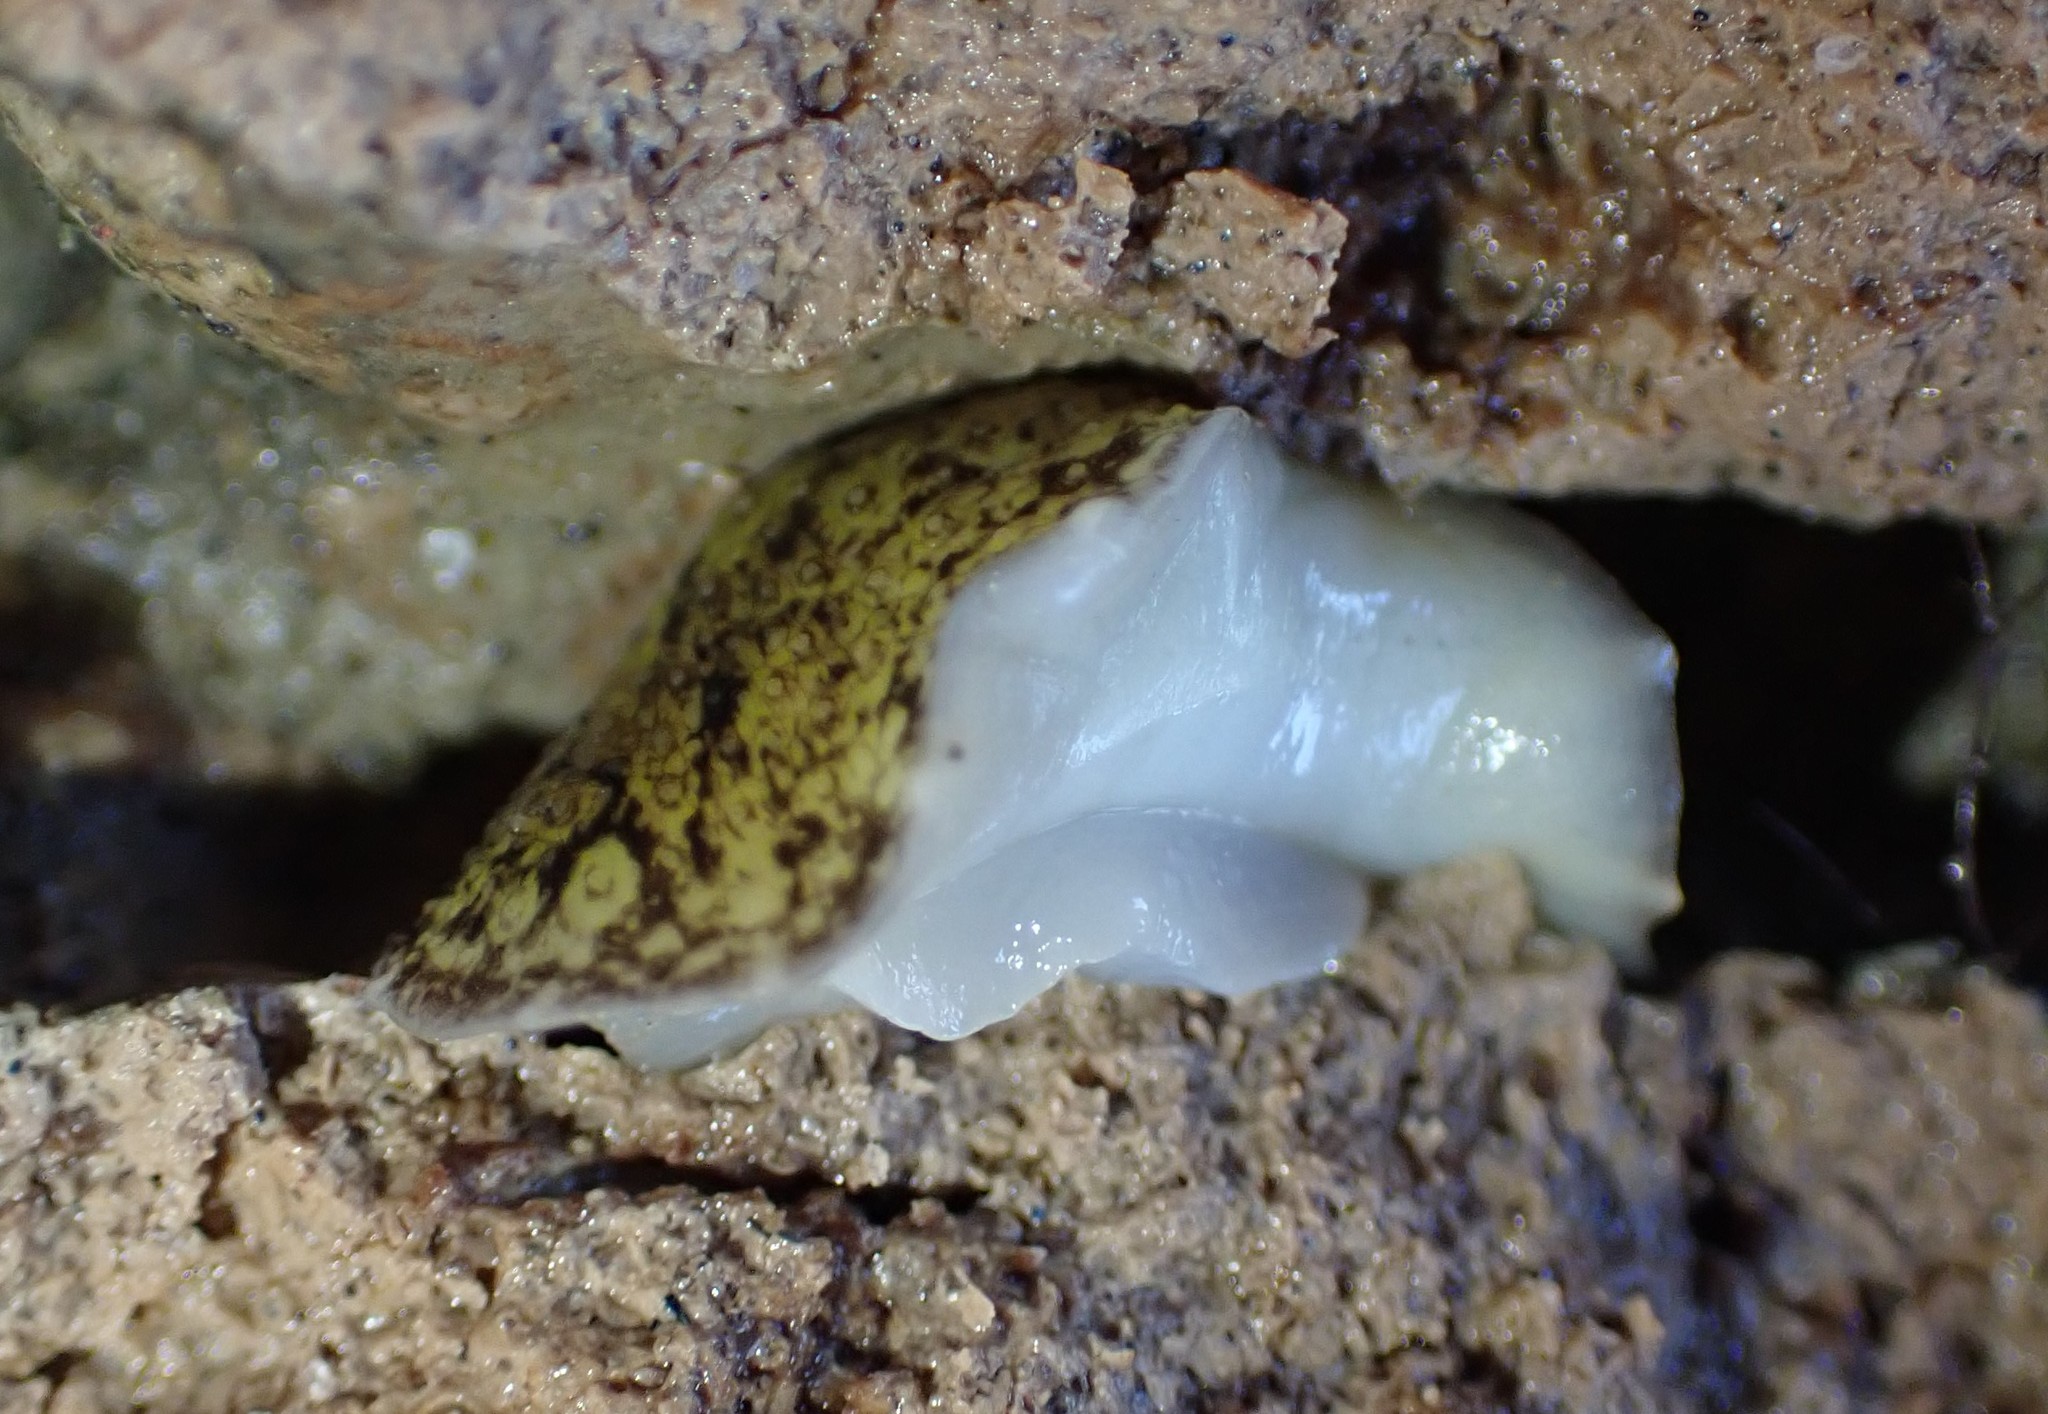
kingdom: Animalia
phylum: Mollusca
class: Gastropoda
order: Systellommatophora
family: Onchidiidae
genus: Onchidella
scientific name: Onchidella nigricans
